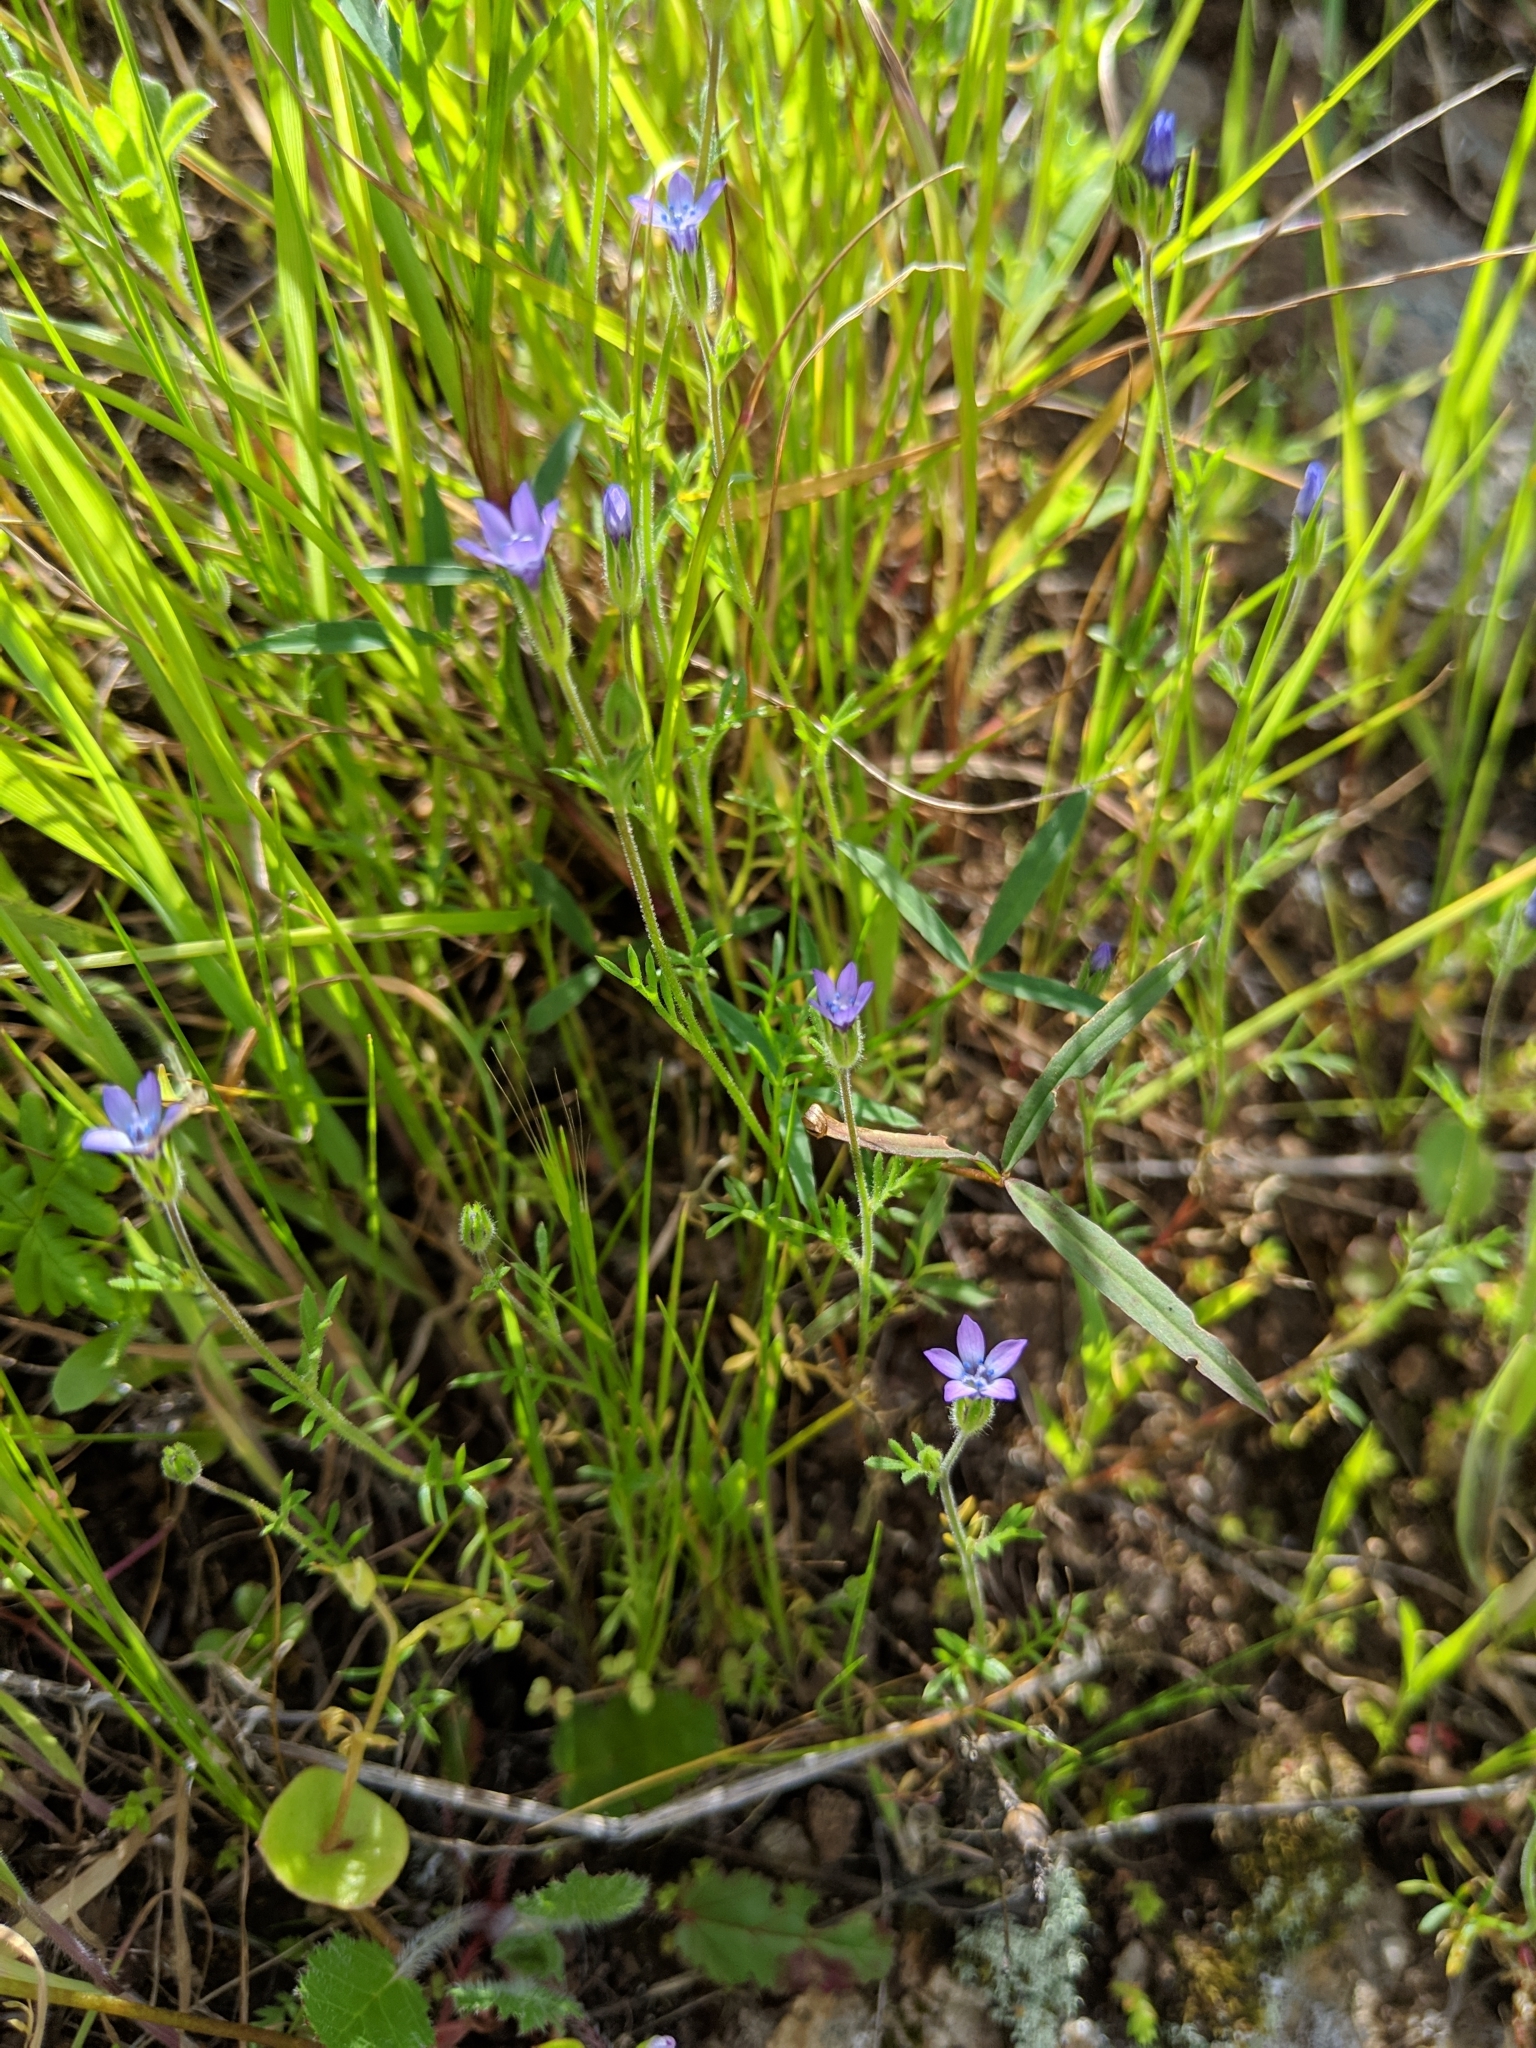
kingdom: Plantae
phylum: Tracheophyta
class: Magnoliopsida
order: Ericales
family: Polemoniaceae
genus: Gilia
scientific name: Gilia clivorum
